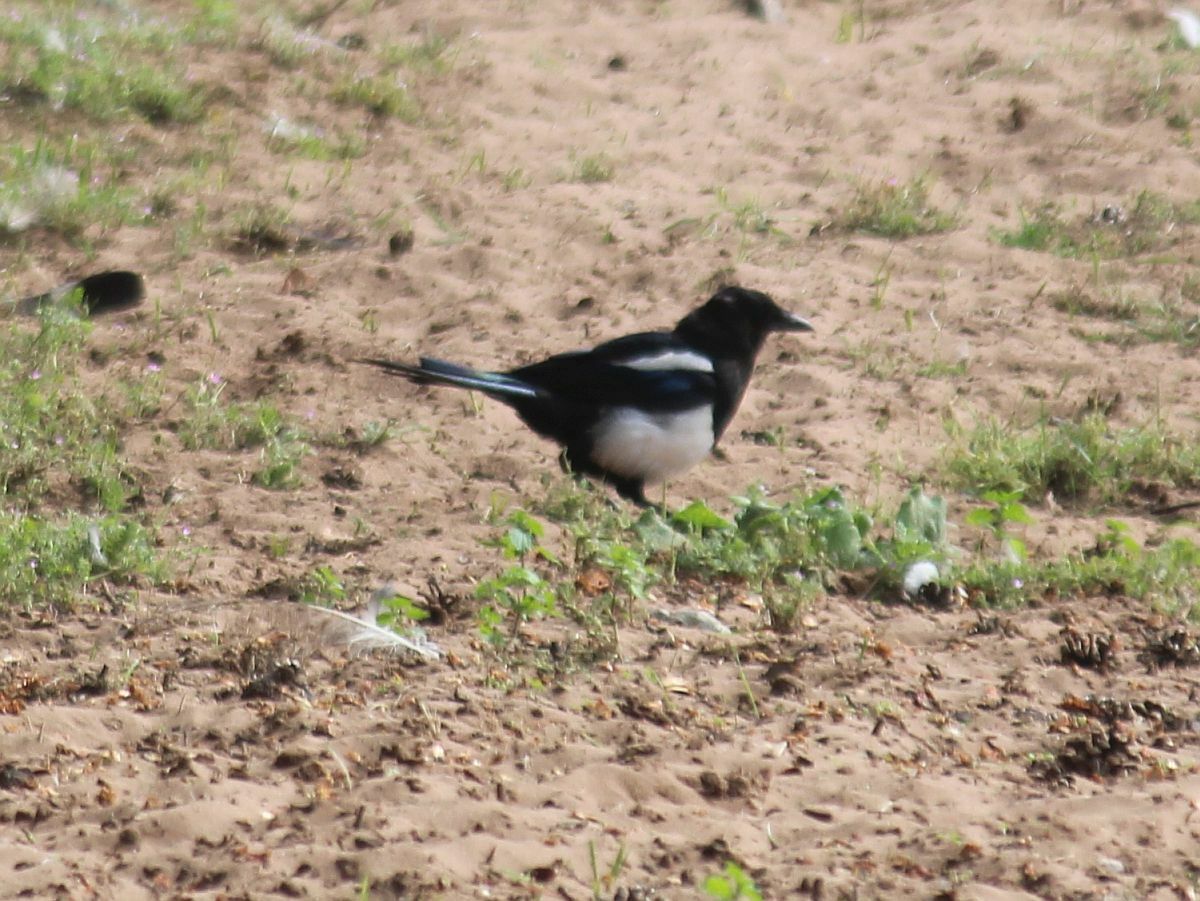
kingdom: Animalia
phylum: Chordata
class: Aves
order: Passeriformes
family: Corvidae
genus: Pica
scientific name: Pica pica
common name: Eurasian magpie
